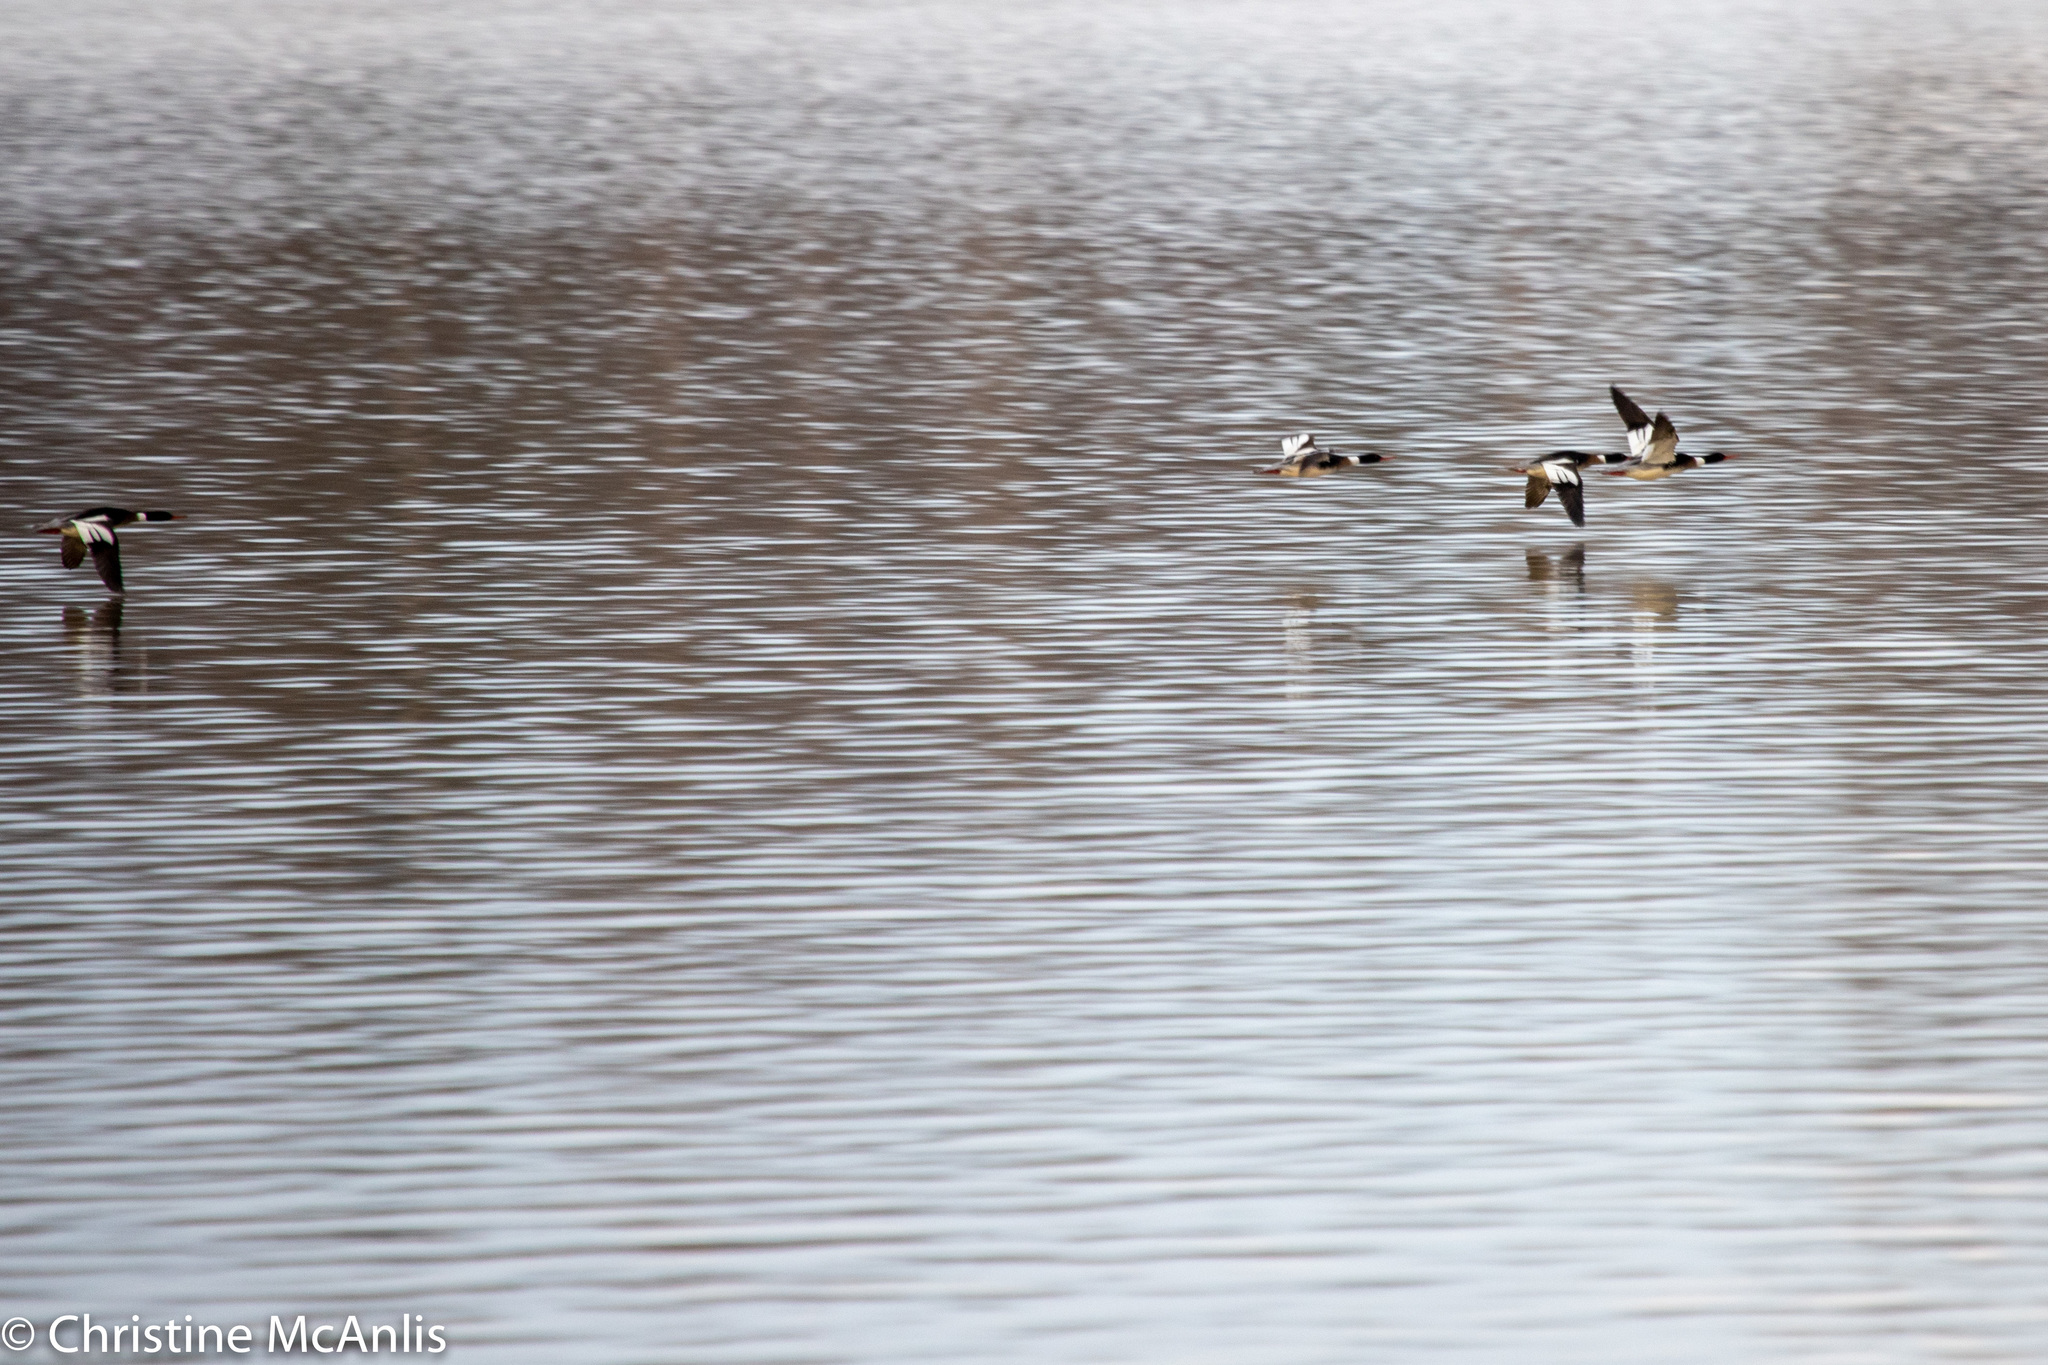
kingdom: Animalia
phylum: Chordata
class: Aves
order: Anseriformes
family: Anatidae
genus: Mergus
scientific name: Mergus serrator
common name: Red-breasted merganser
